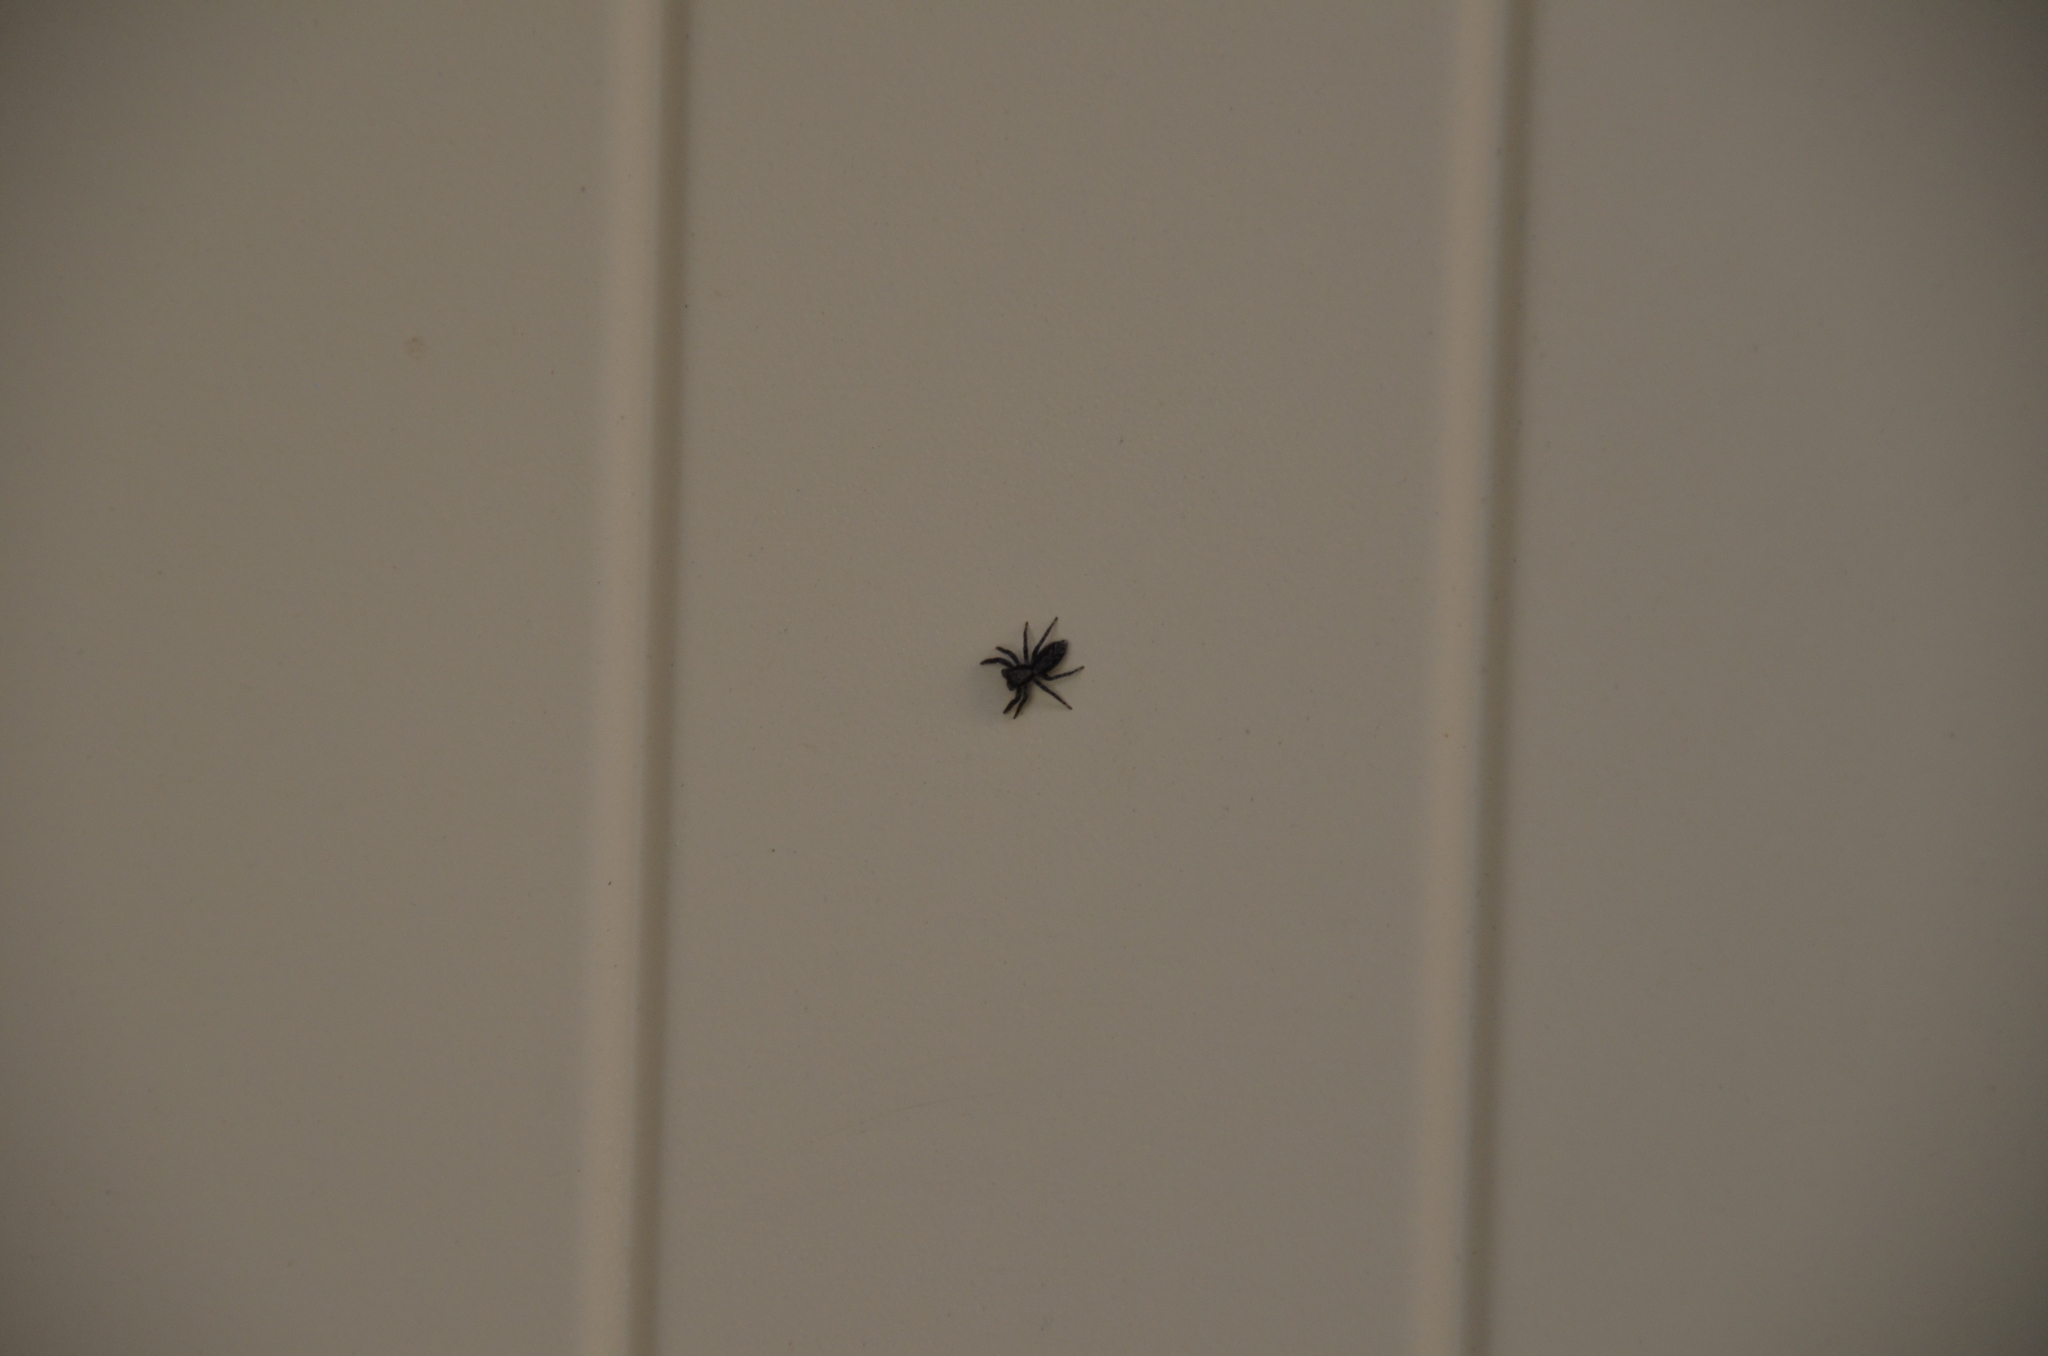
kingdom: Animalia
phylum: Arthropoda
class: Arachnida
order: Araneae
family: Salticidae
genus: Platycryptus
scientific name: Platycryptus californicus
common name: Jumping spiders
